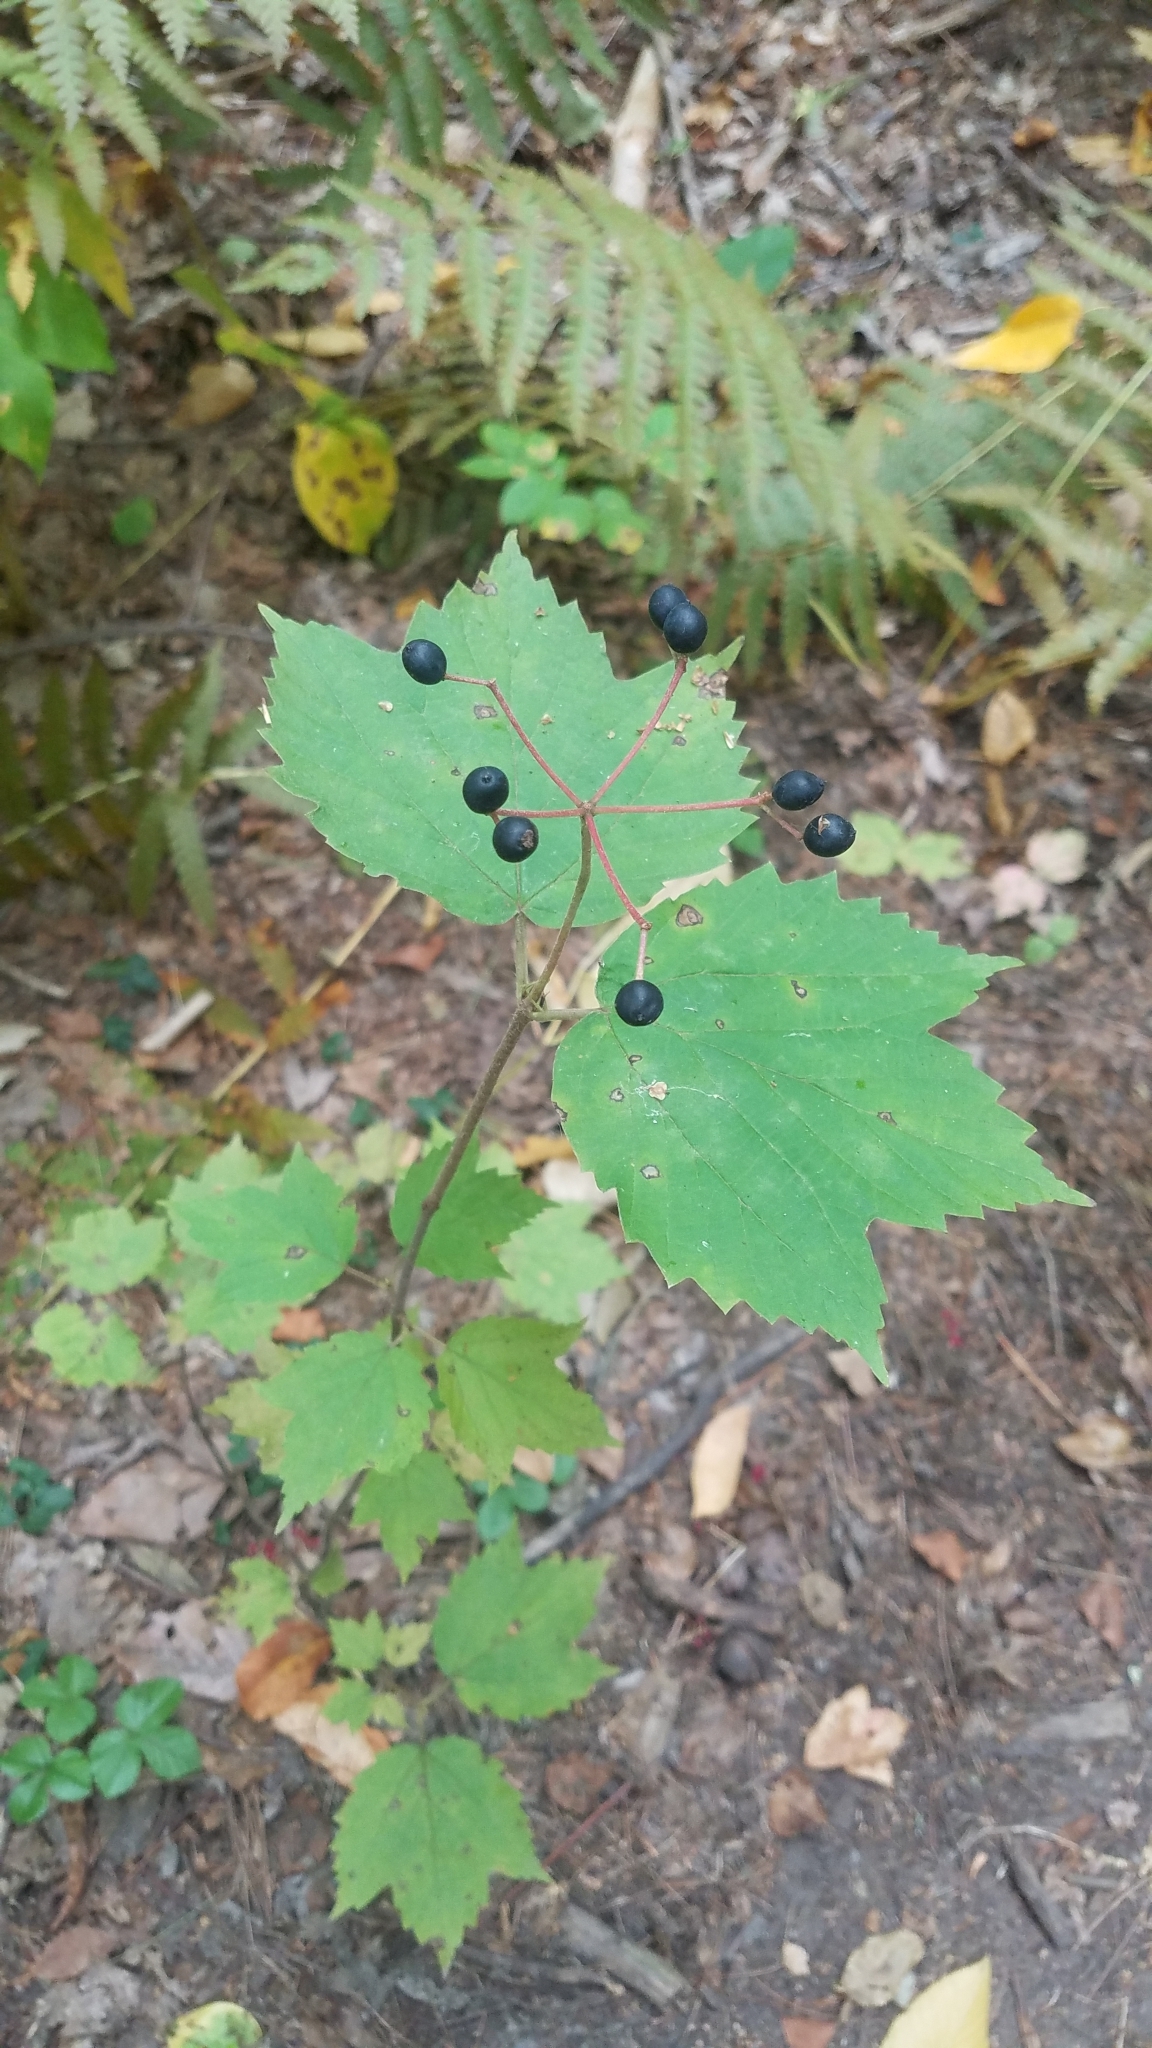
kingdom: Plantae
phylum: Tracheophyta
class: Magnoliopsida
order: Dipsacales
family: Viburnaceae
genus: Viburnum
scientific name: Viburnum acerifolium
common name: Dockmackie
